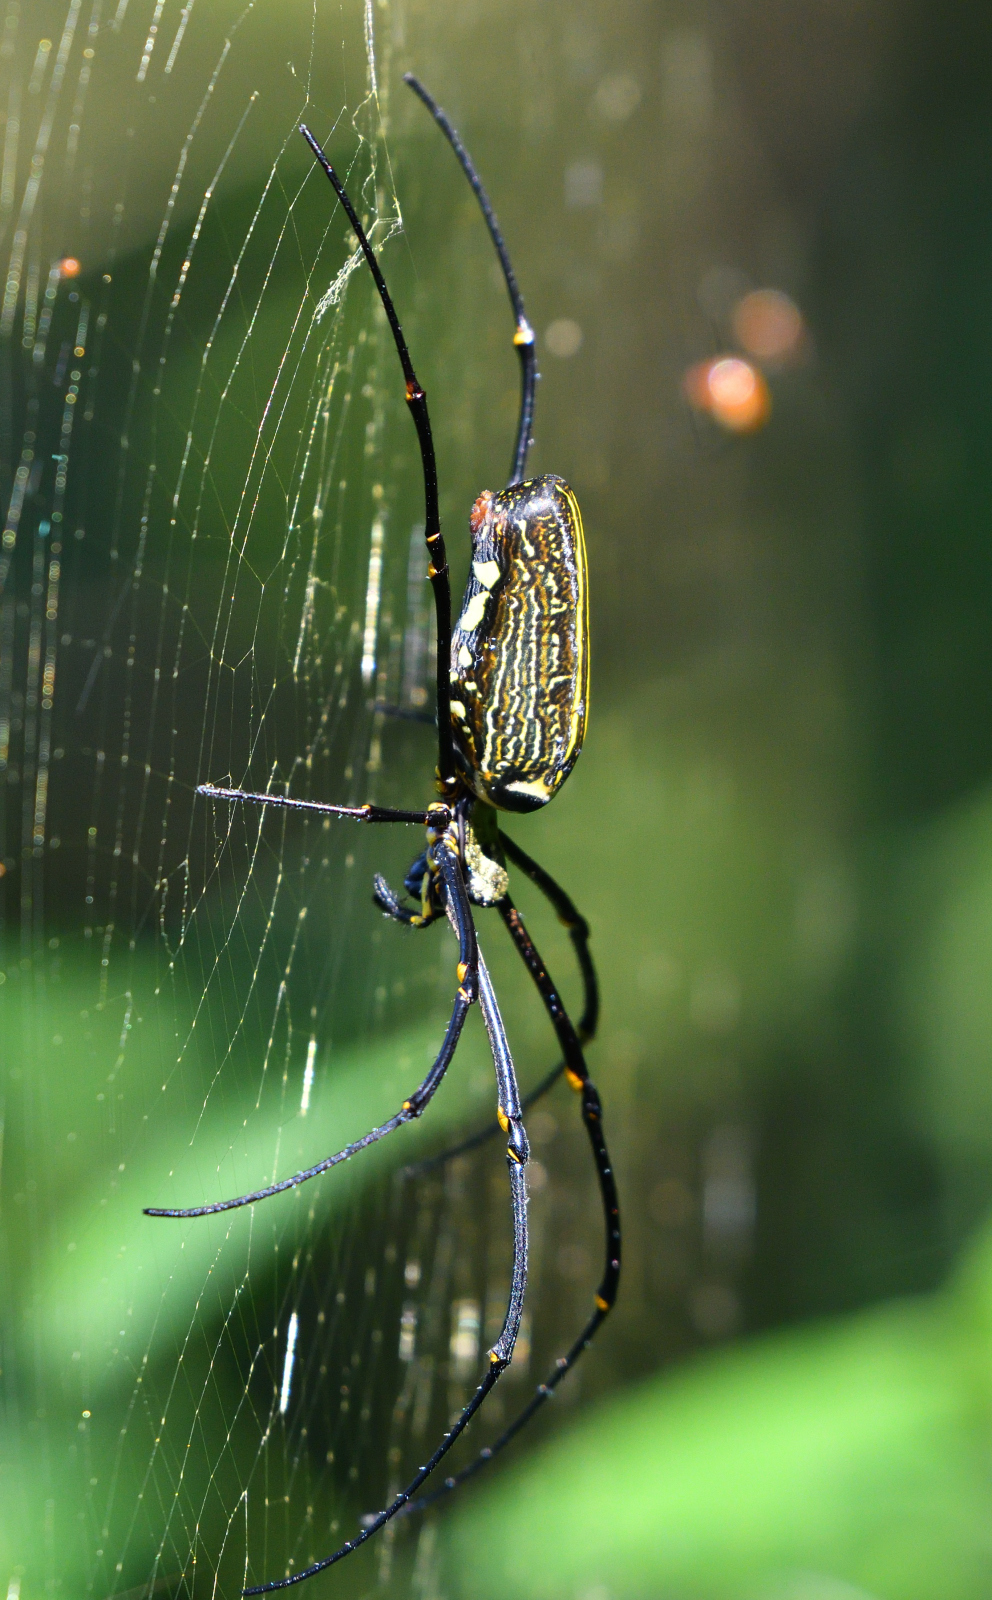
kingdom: Animalia
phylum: Arthropoda
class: Arachnida
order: Araneae
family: Araneidae
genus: Nephila
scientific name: Nephila pilipes
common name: Giant golden orb weaver
